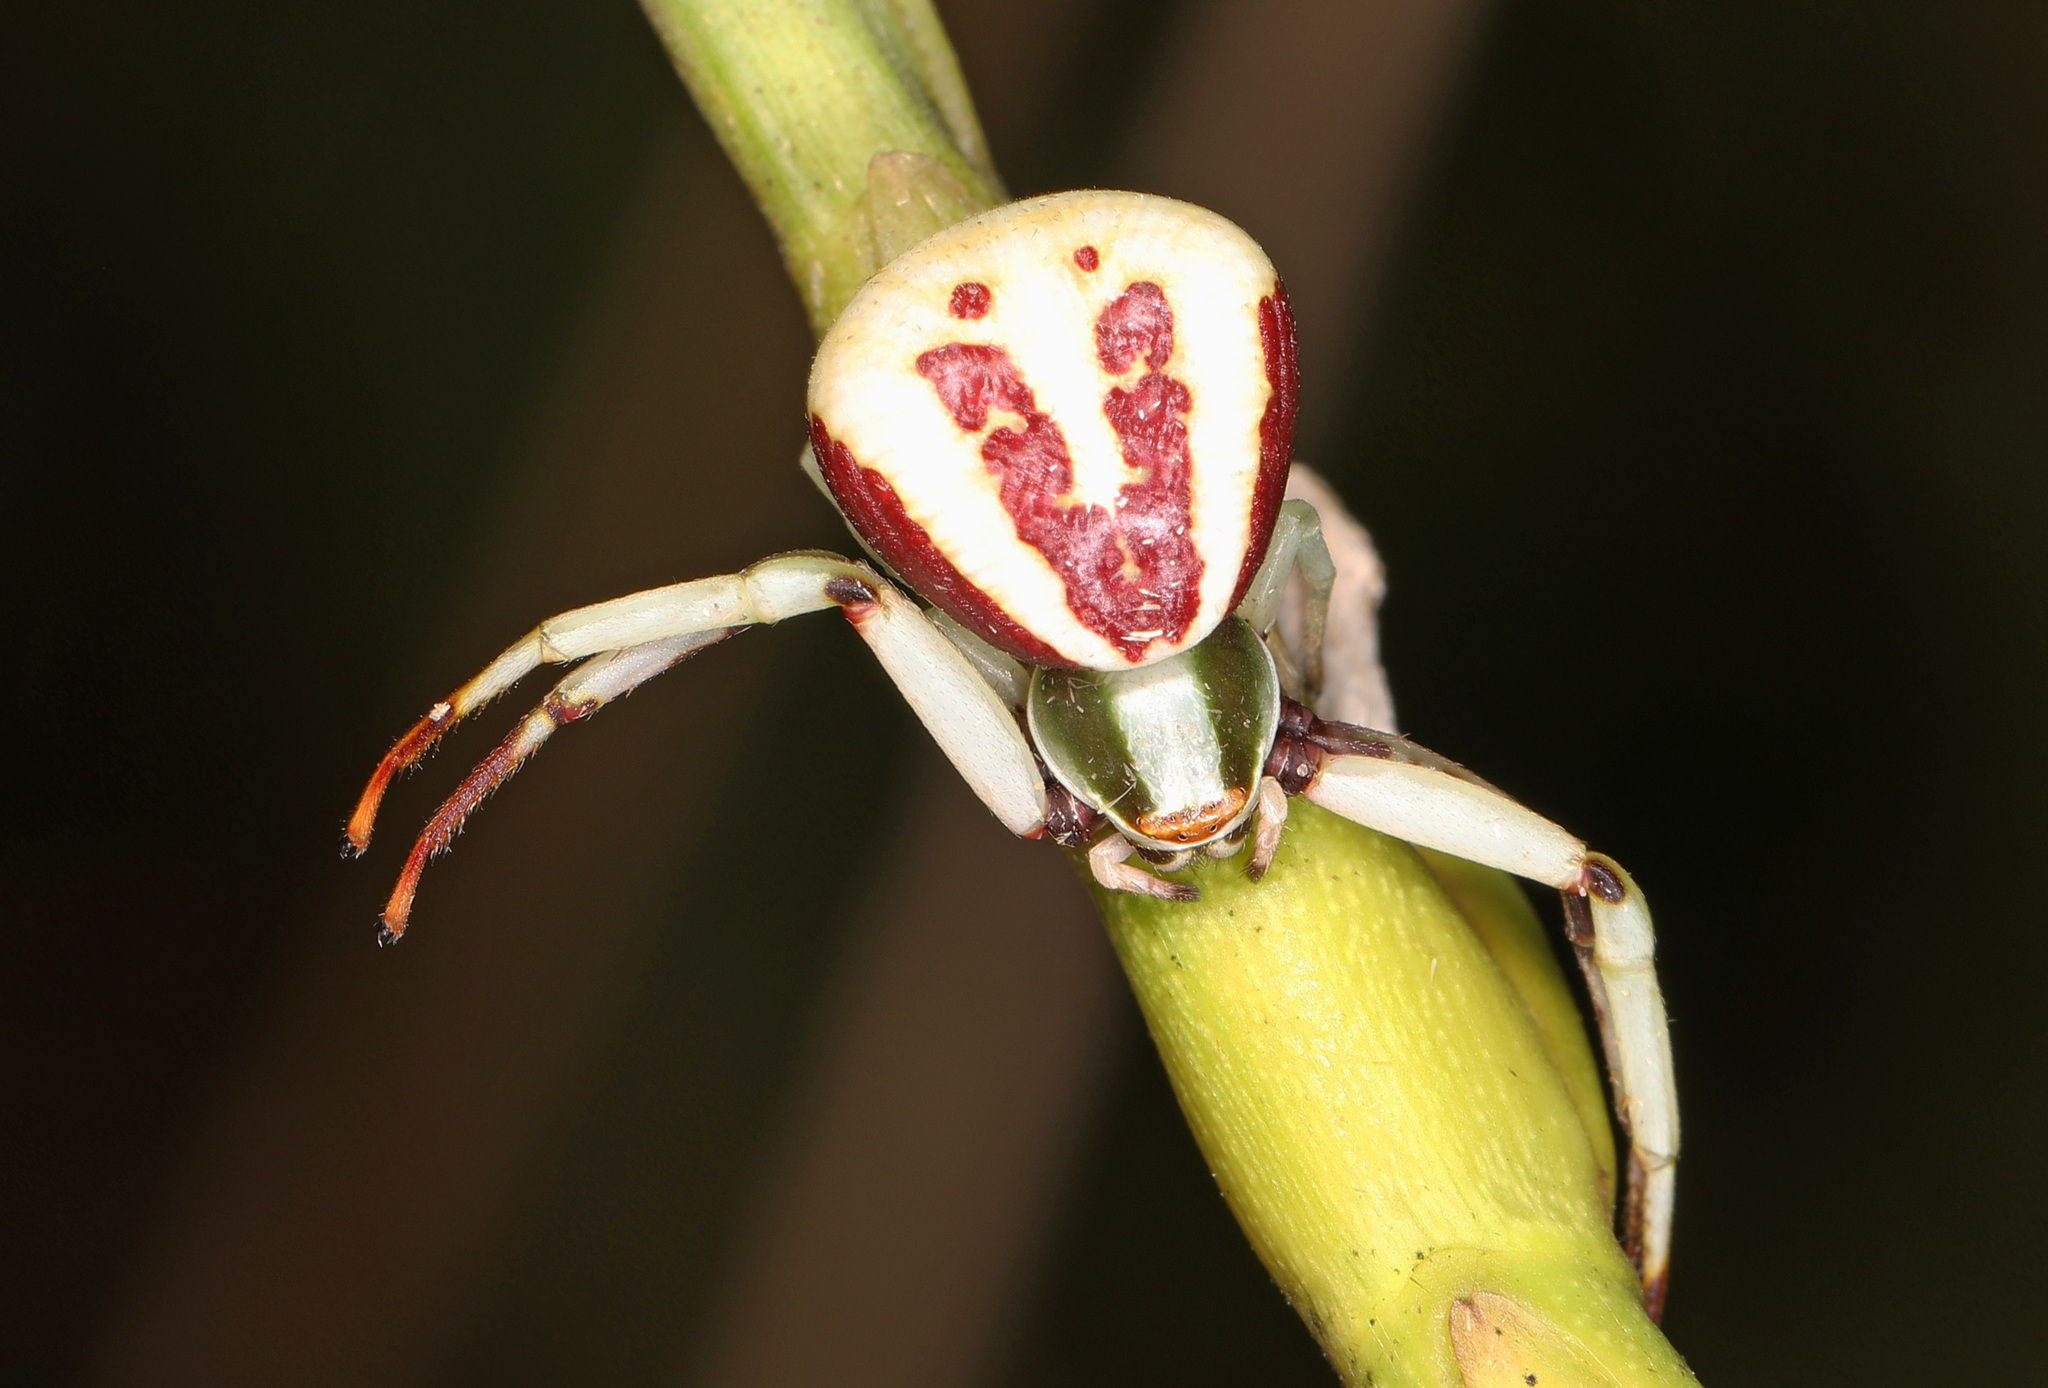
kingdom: Animalia
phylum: Arthropoda
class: Arachnida
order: Araneae
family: Thomisidae
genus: Misumenoides
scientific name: Misumenoides formosipes
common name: White-banded crab spider
